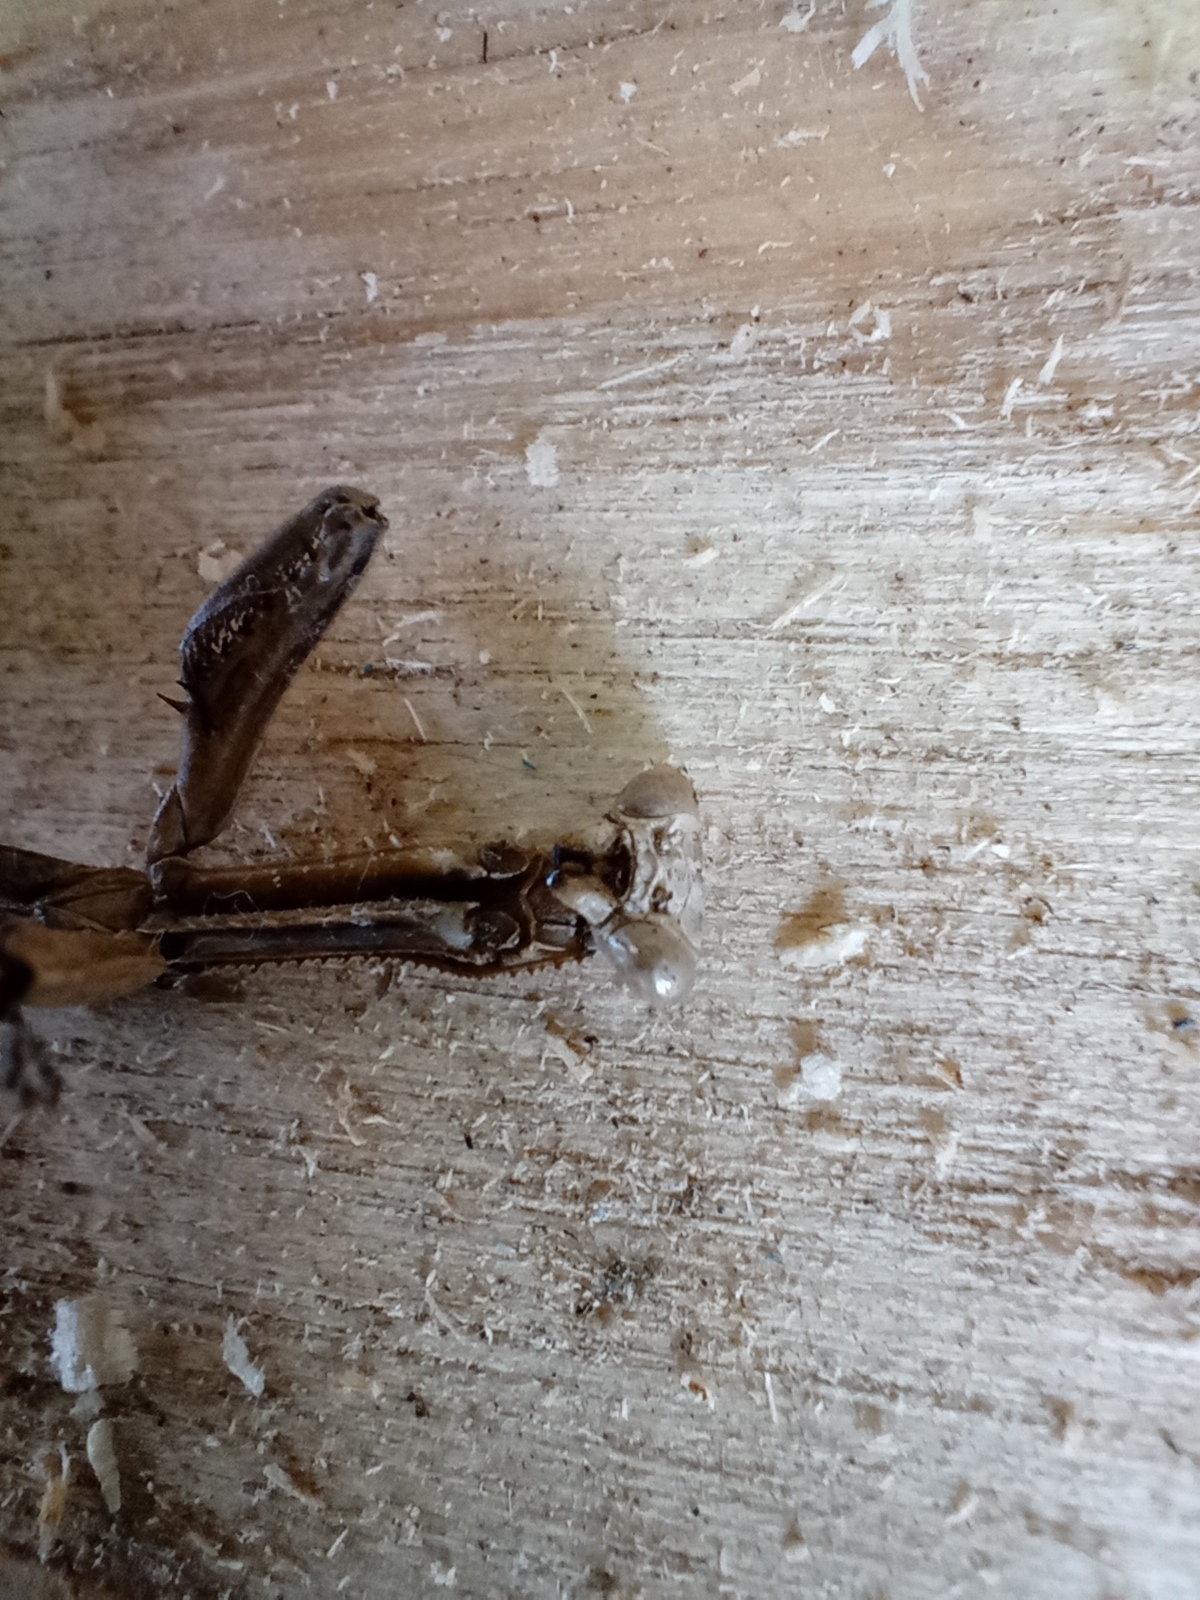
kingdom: Animalia
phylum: Arthropoda
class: Insecta
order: Mantodea
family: Coptopterygidae
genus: Coptopteryx
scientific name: Coptopteryx gayi
